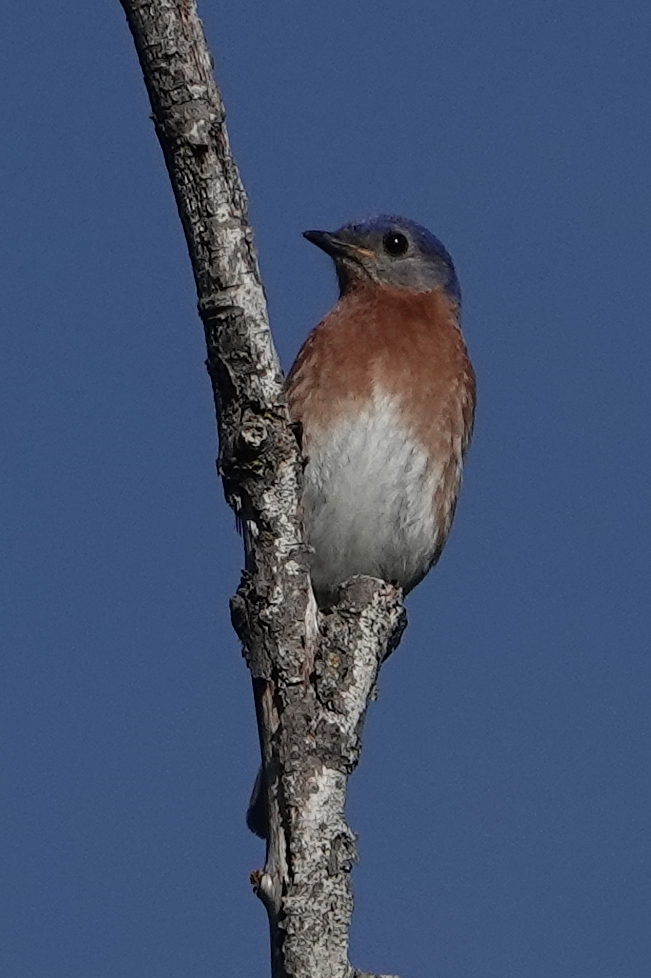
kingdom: Animalia
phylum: Chordata
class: Aves
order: Passeriformes
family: Turdidae
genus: Sialia
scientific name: Sialia sialis
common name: Eastern bluebird
